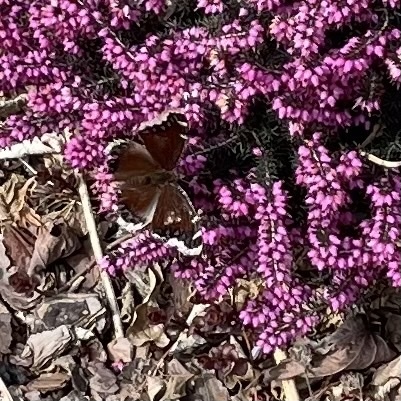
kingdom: Animalia
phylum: Arthropoda
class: Insecta
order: Lepidoptera
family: Nymphalidae
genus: Nymphalis
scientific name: Nymphalis antiopa
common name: Camberwell beauty
